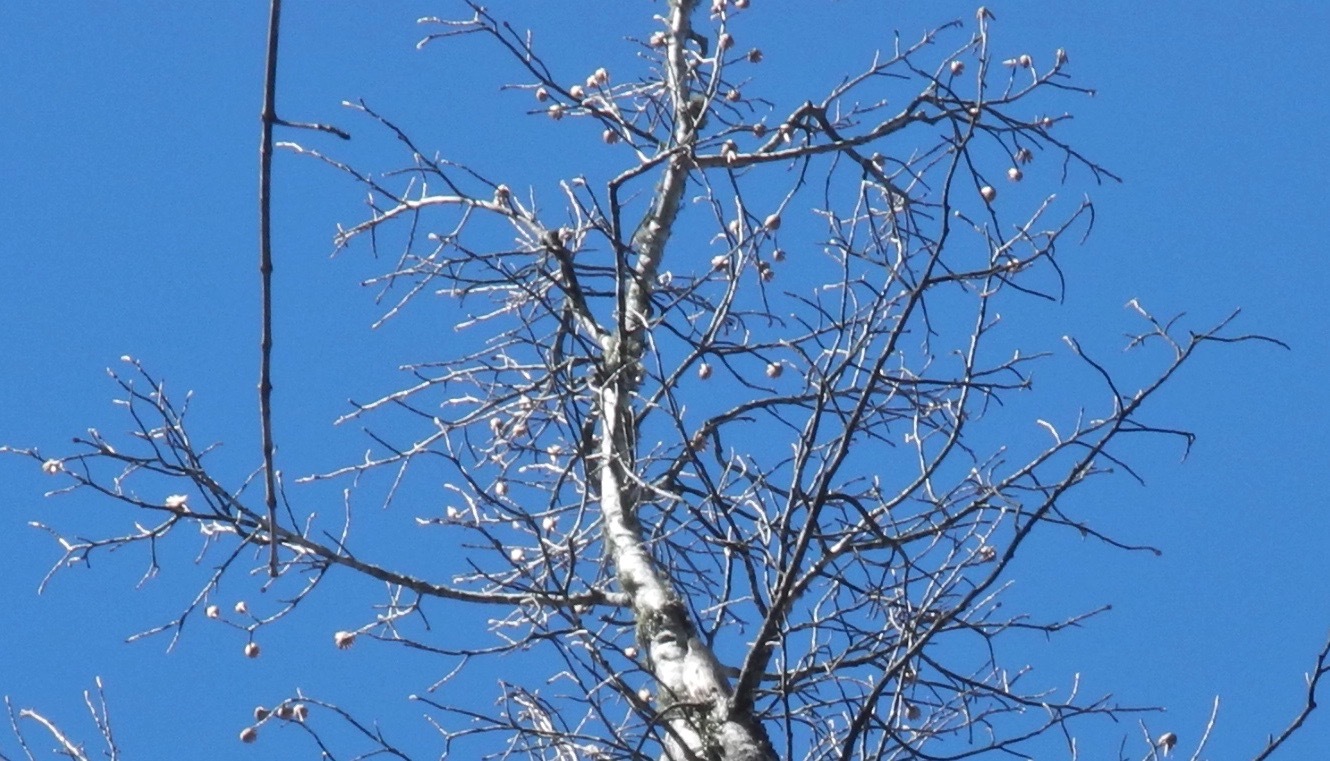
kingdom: Plantae
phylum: Tracheophyta
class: Magnoliopsida
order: Magnoliales
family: Magnoliaceae
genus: Liriodendron
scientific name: Liriodendron tulipifera
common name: Tulip tree
